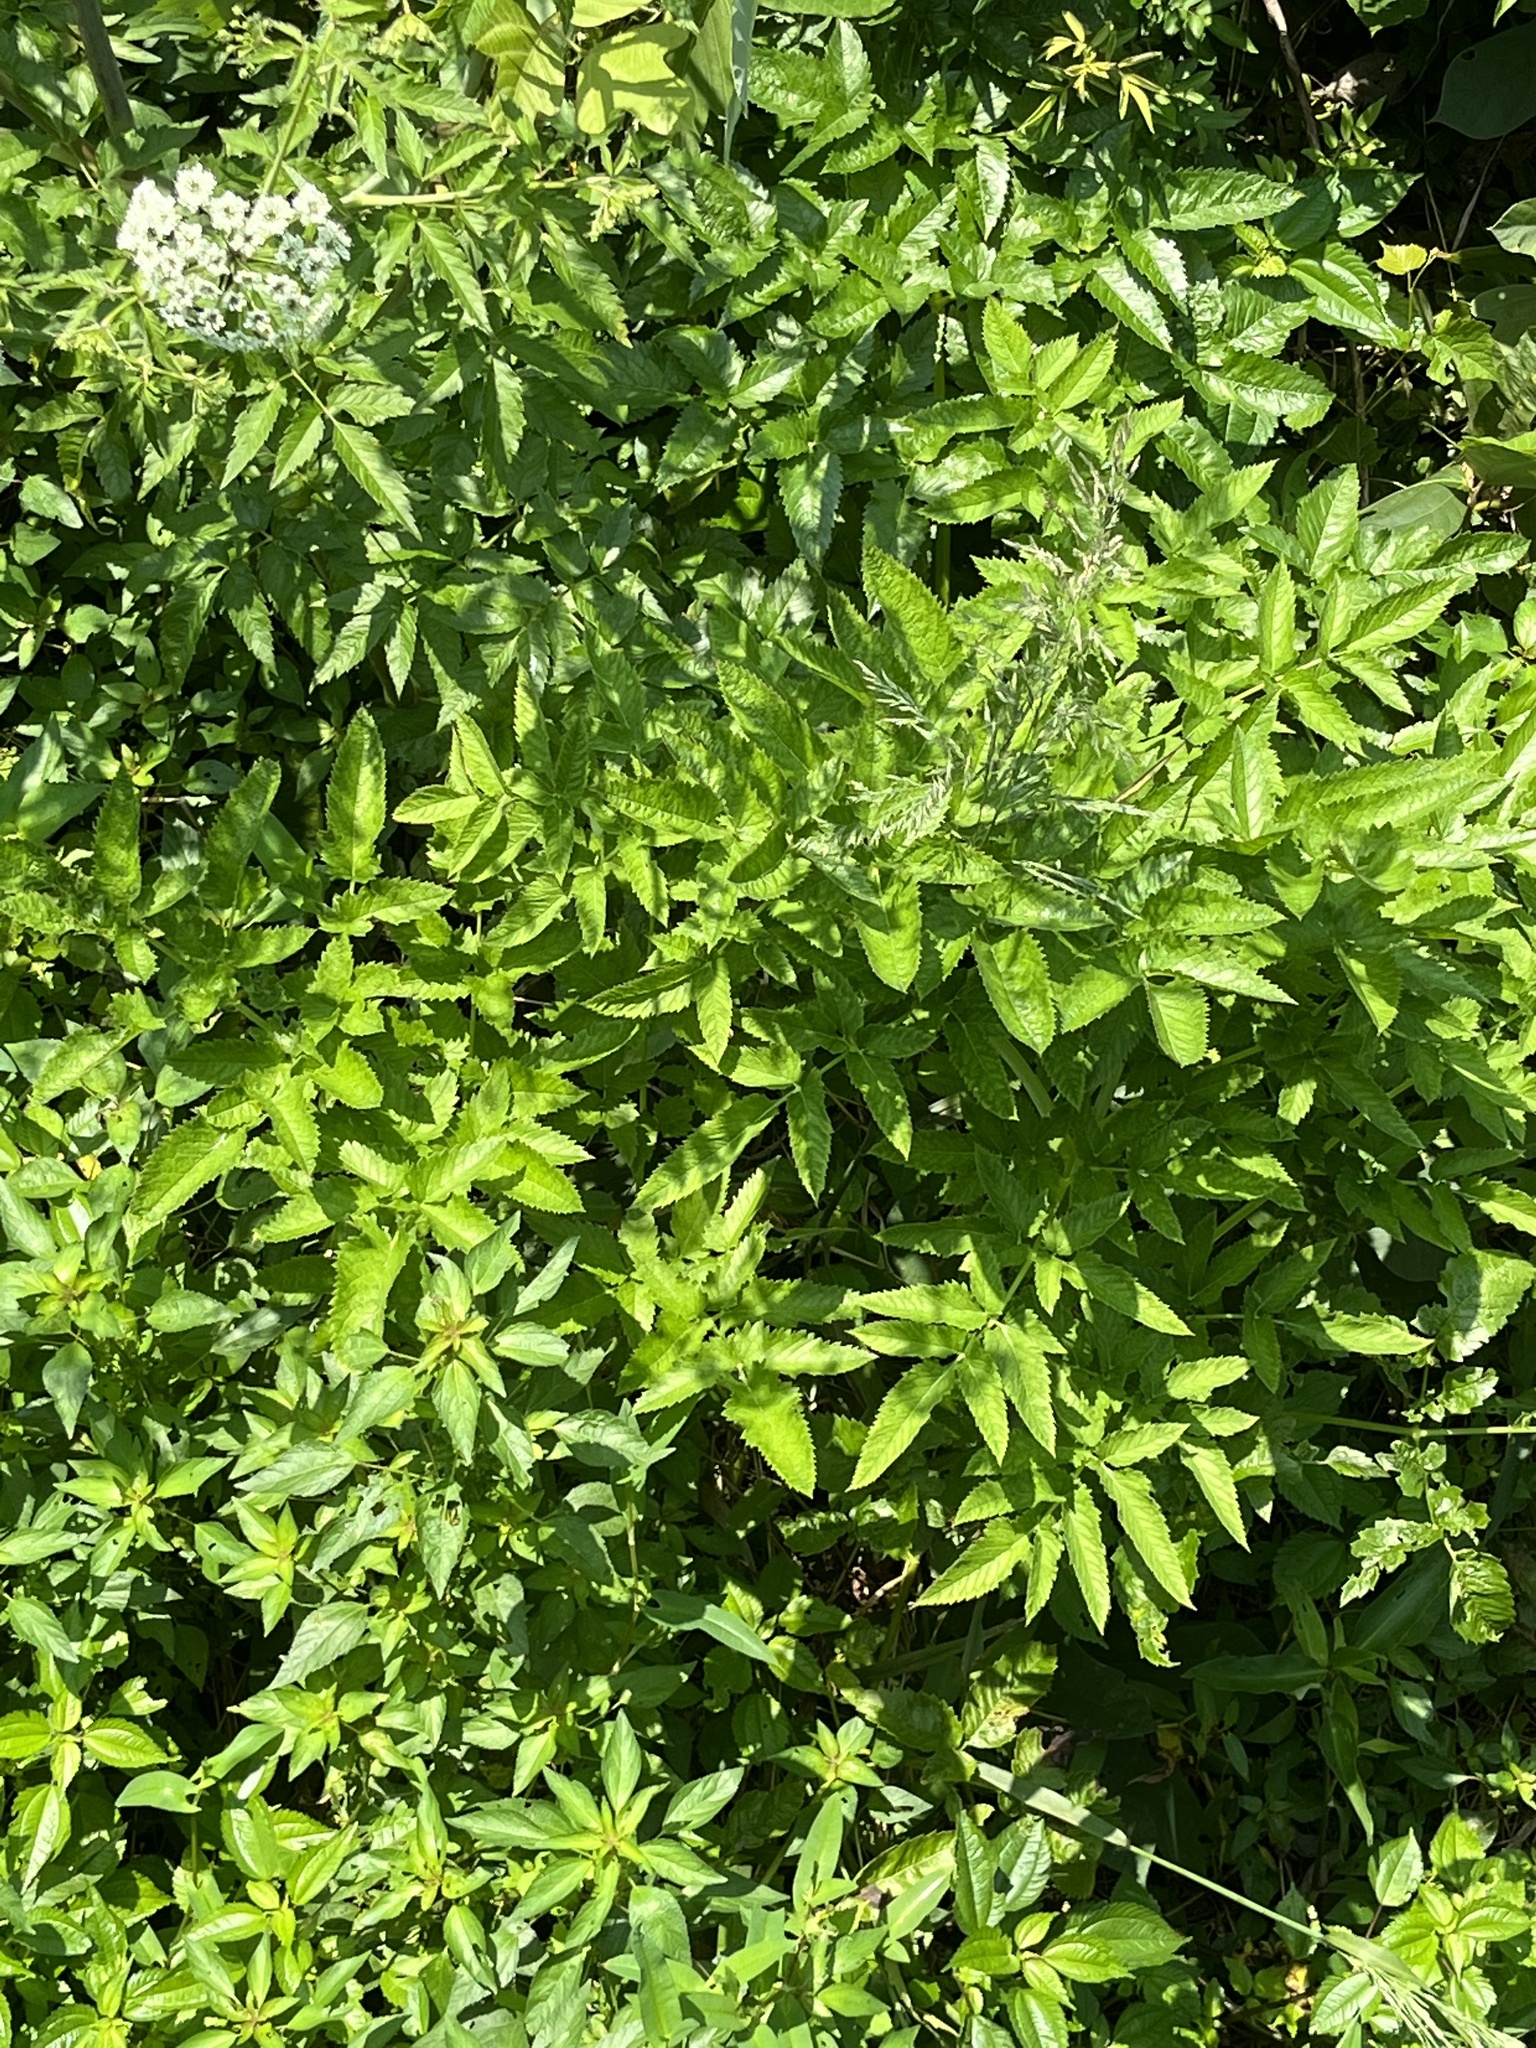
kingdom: Plantae
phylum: Tracheophyta
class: Magnoliopsida
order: Apiales
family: Apiaceae
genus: Cicuta
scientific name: Cicuta maculata
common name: Spotted cowbane
